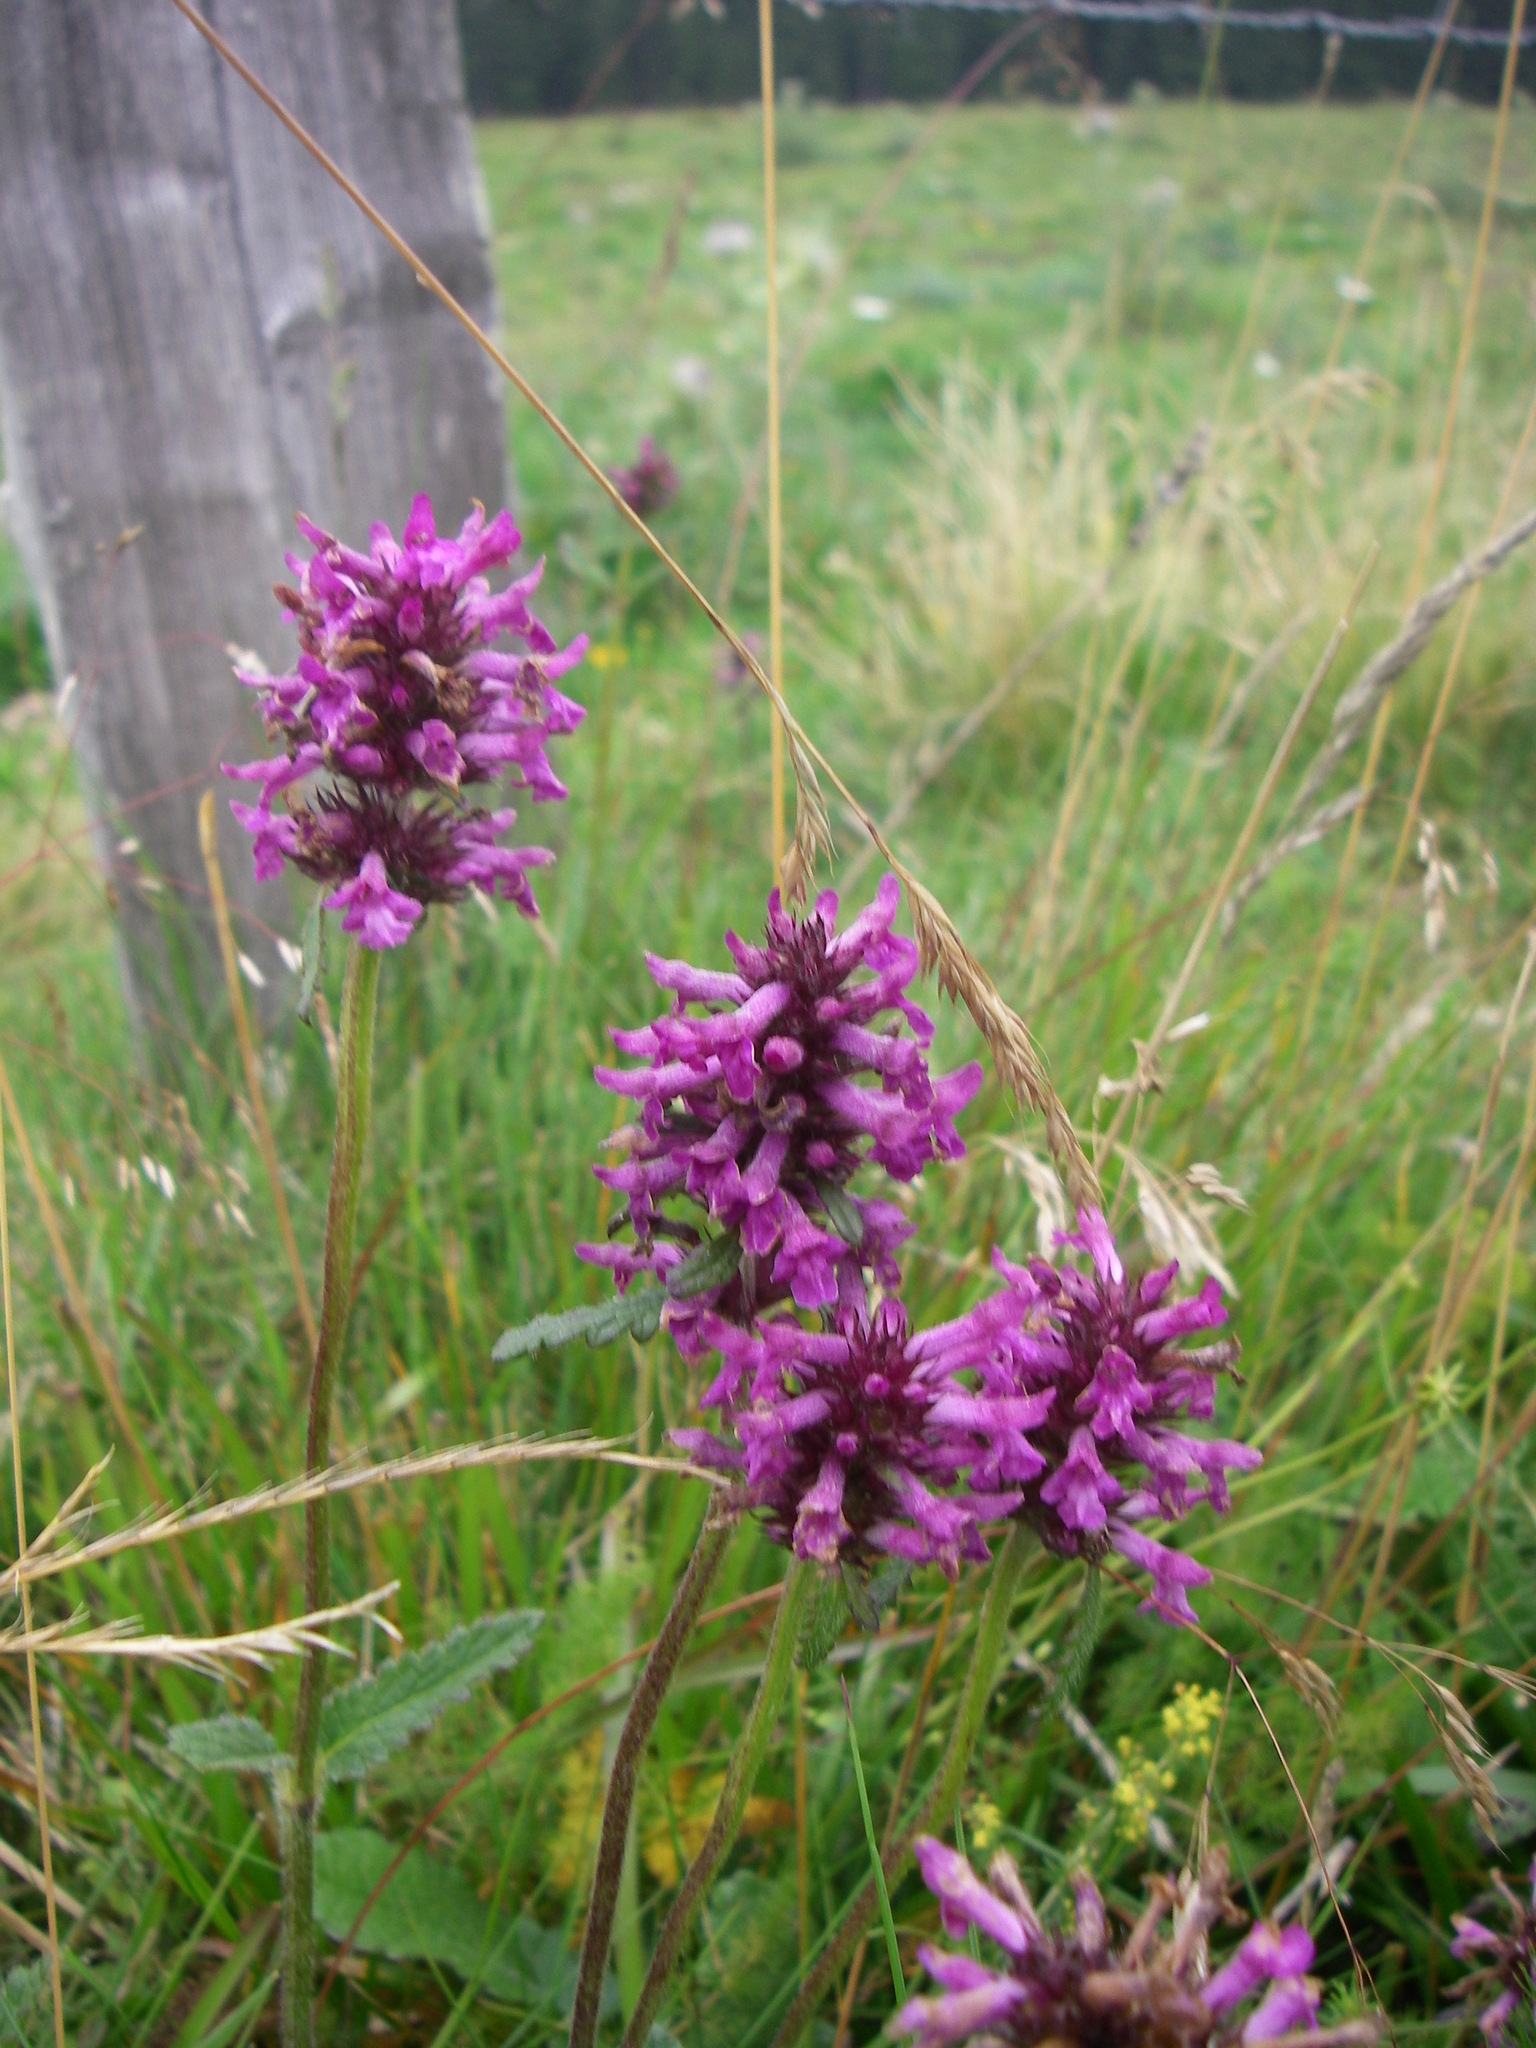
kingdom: Plantae
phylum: Tracheophyta
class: Magnoliopsida
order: Lamiales
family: Lamiaceae
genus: Betonica
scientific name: Betonica officinalis
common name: Bishop's-wort
